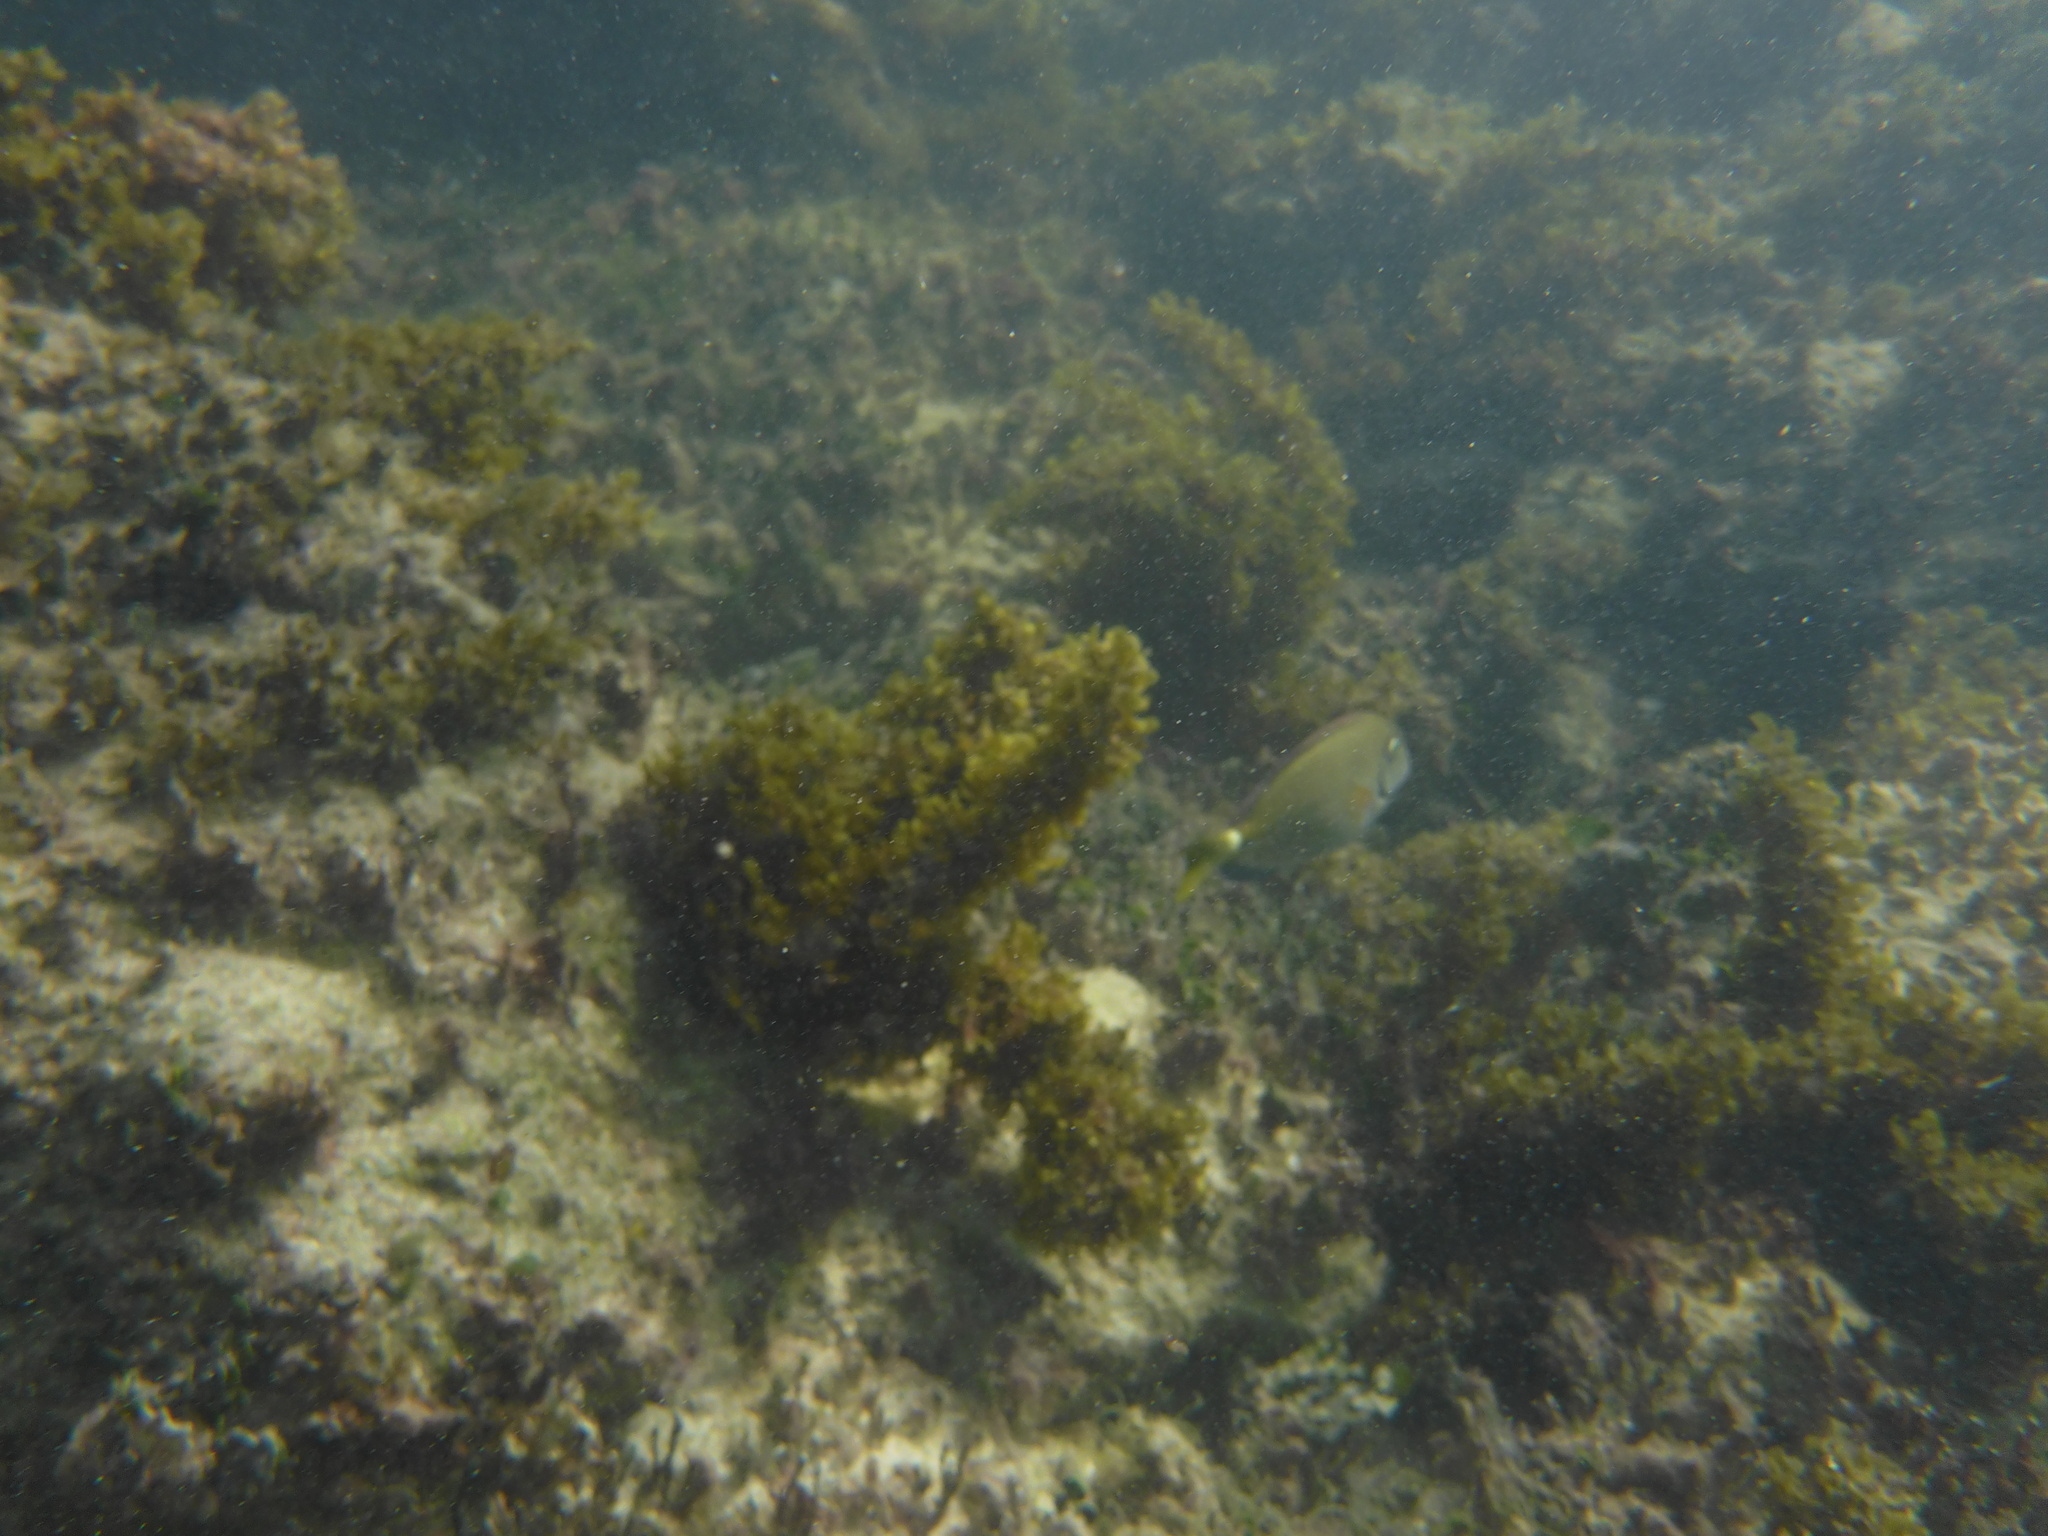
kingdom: Animalia
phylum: Chordata
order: Perciformes
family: Acanthuridae
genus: Acanthurus
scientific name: Acanthurus bahianus
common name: Ocean surgeon
